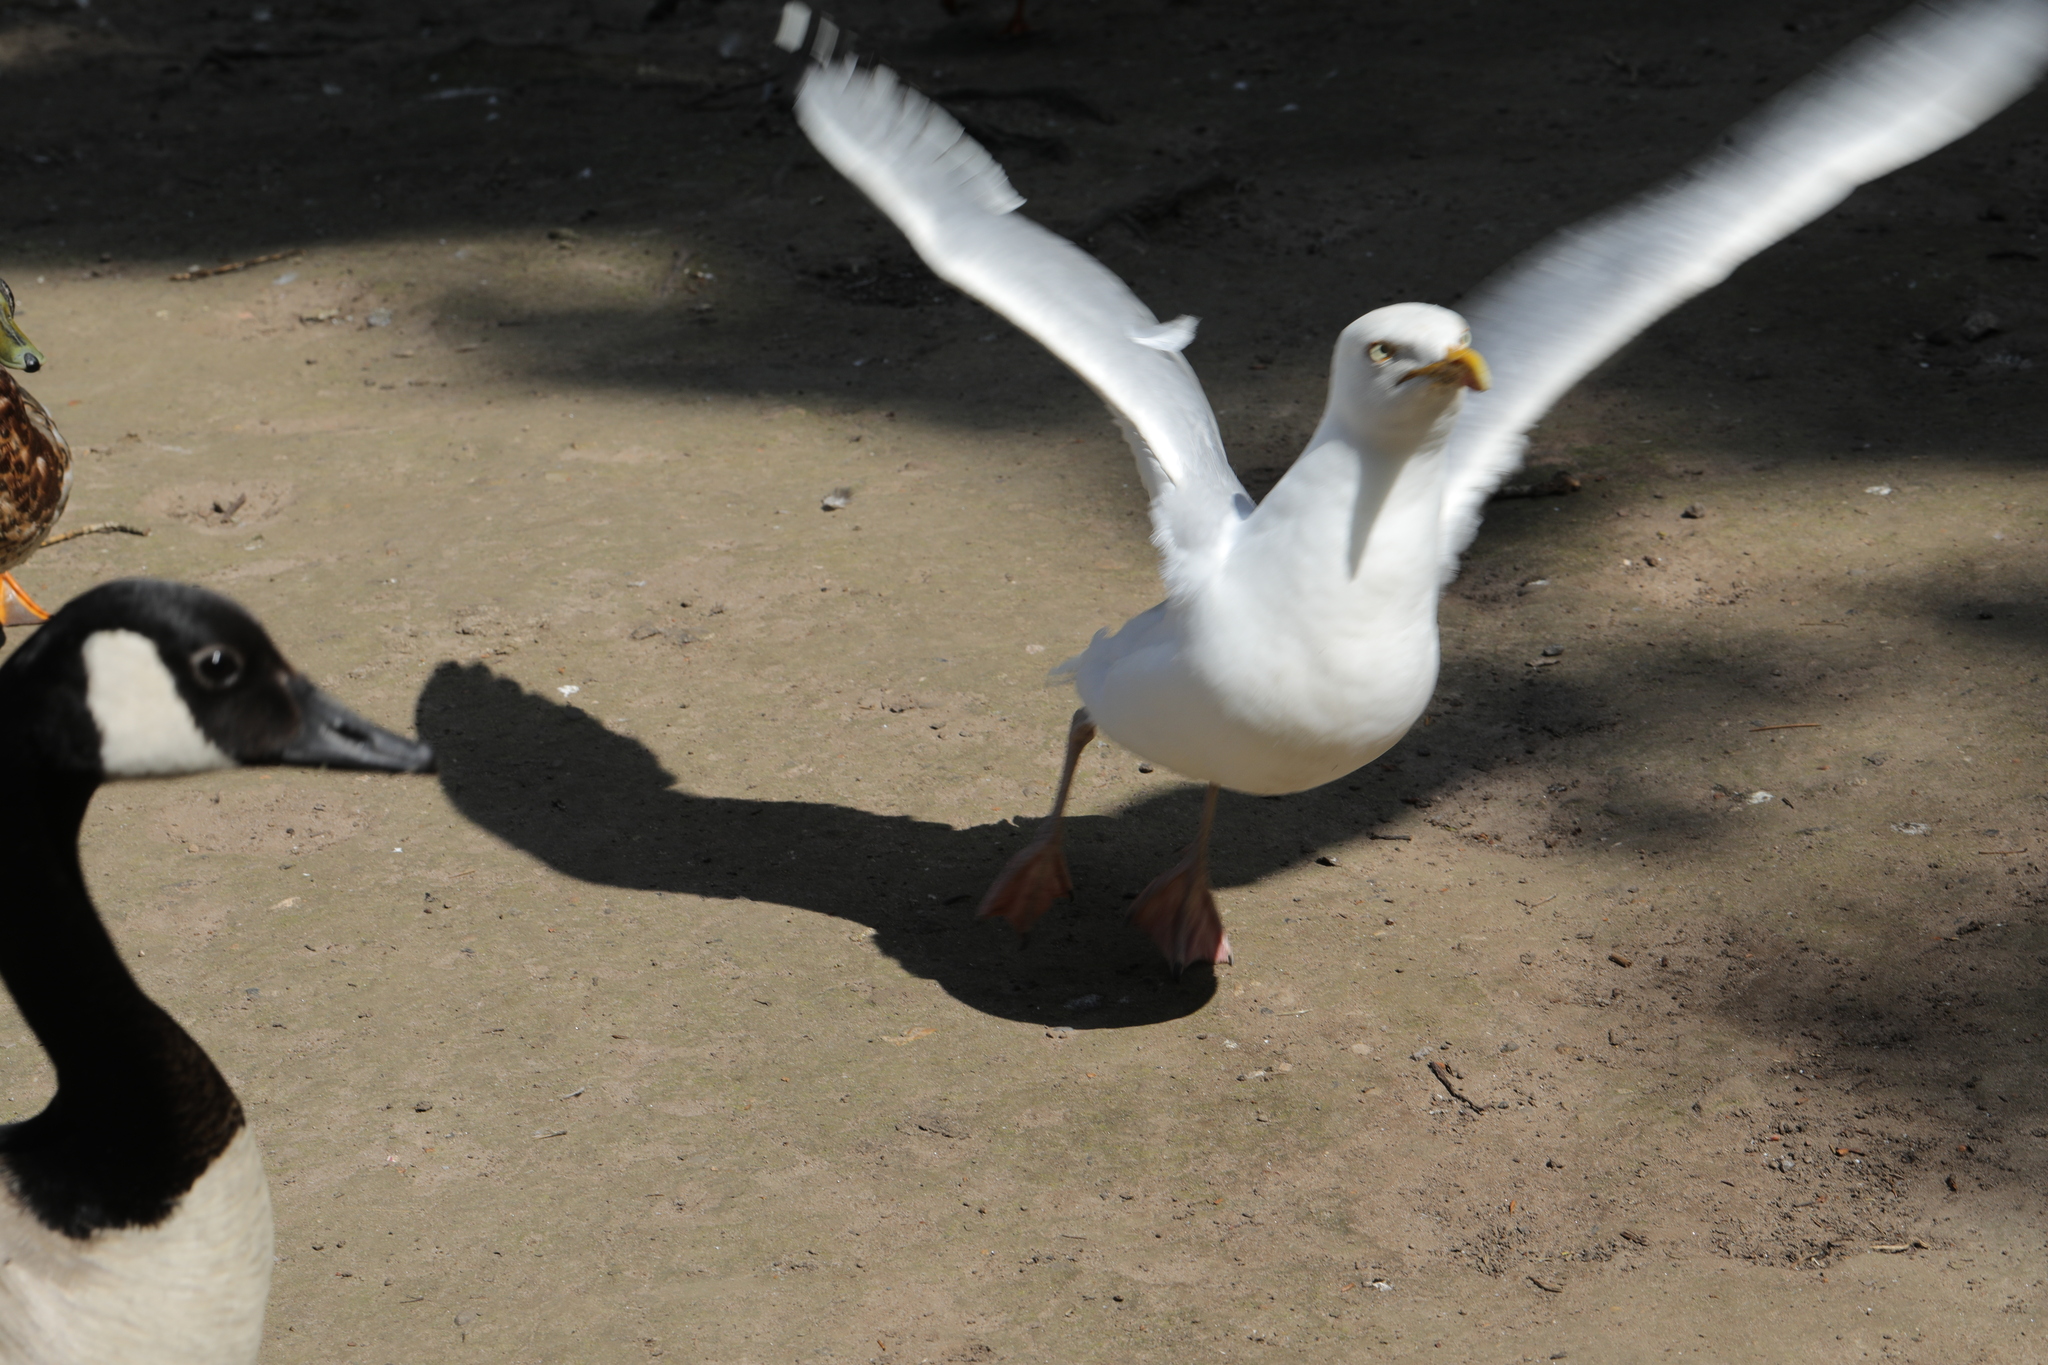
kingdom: Animalia
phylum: Chordata
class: Aves
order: Charadriiformes
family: Laridae
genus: Larus
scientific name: Larus argentatus
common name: Herring gull
